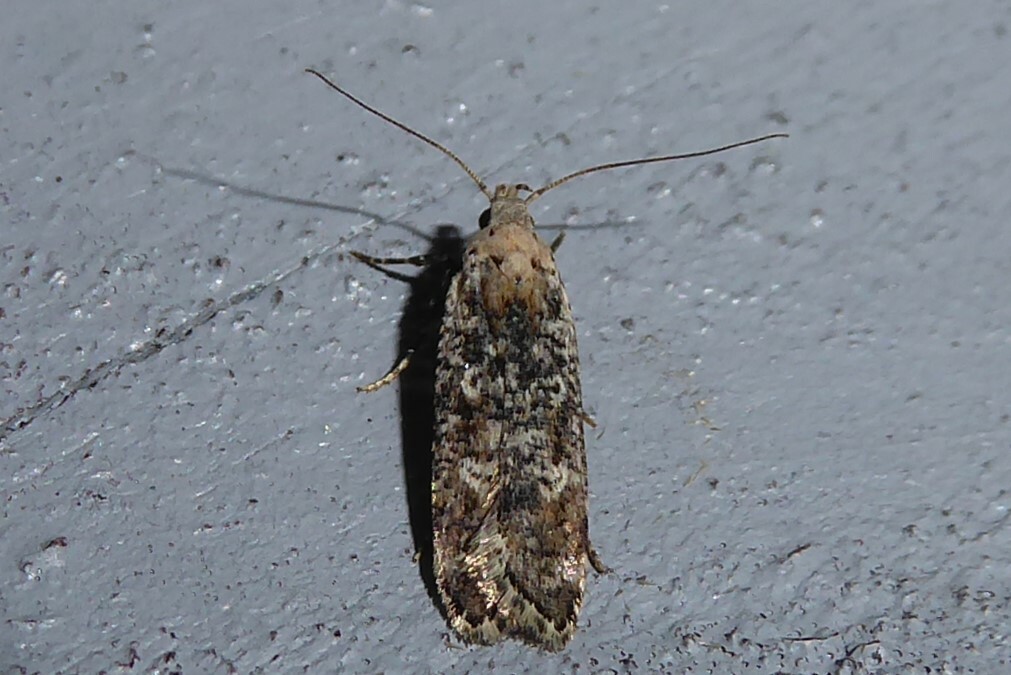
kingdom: Animalia
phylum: Arthropoda
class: Insecta
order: Lepidoptera
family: Gelechiidae
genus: Anisoplaca
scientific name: Anisoplaca achyrota
